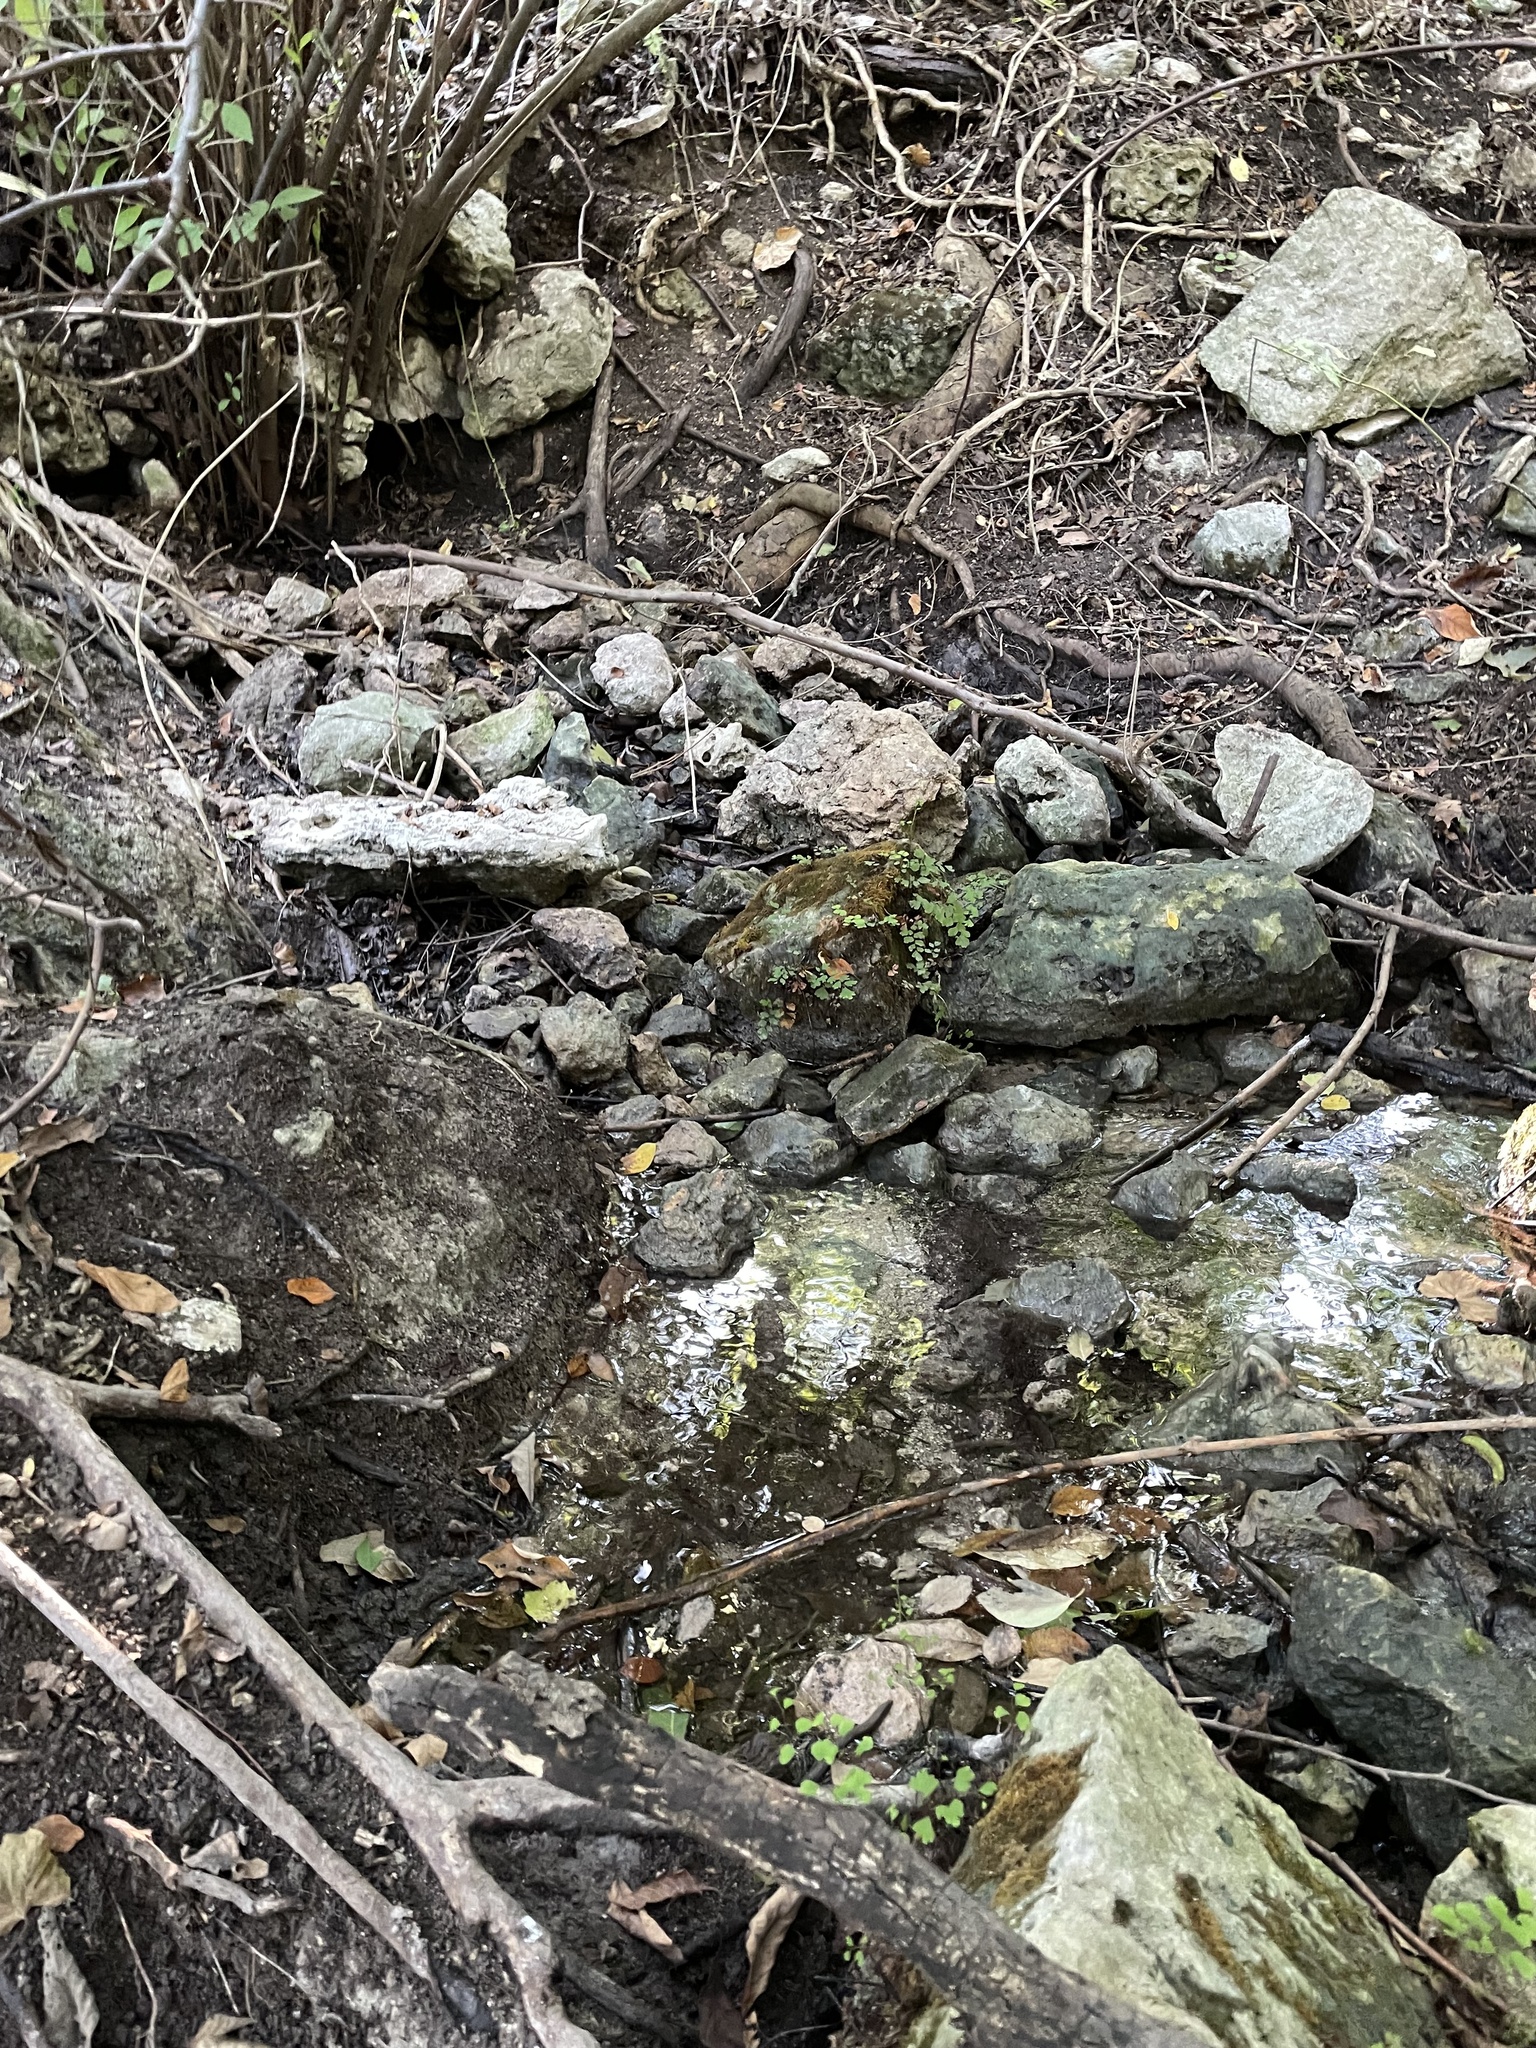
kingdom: Plantae
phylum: Tracheophyta
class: Magnoliopsida
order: Laurales
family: Lauraceae
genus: Lindera
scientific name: Lindera benzoin
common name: Spicebush
